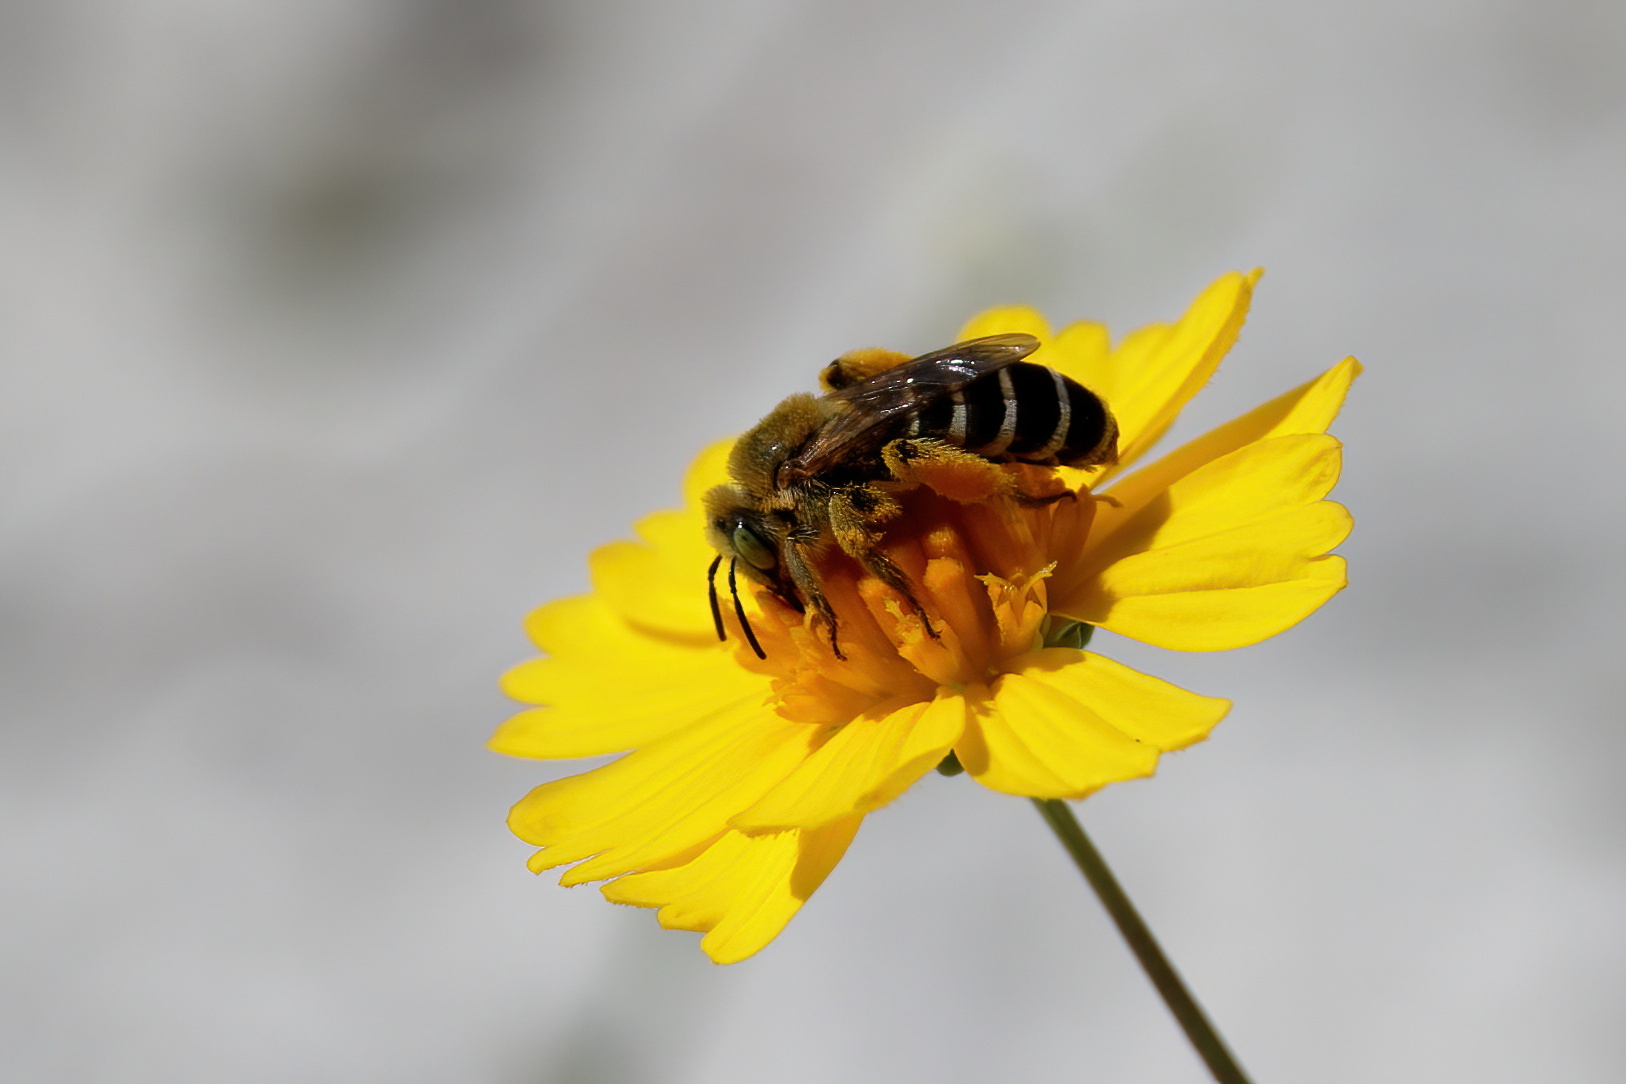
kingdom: Animalia
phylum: Arthropoda
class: Insecta
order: Hymenoptera
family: Melittidae
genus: Hesperapis
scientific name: Hesperapis oraria
